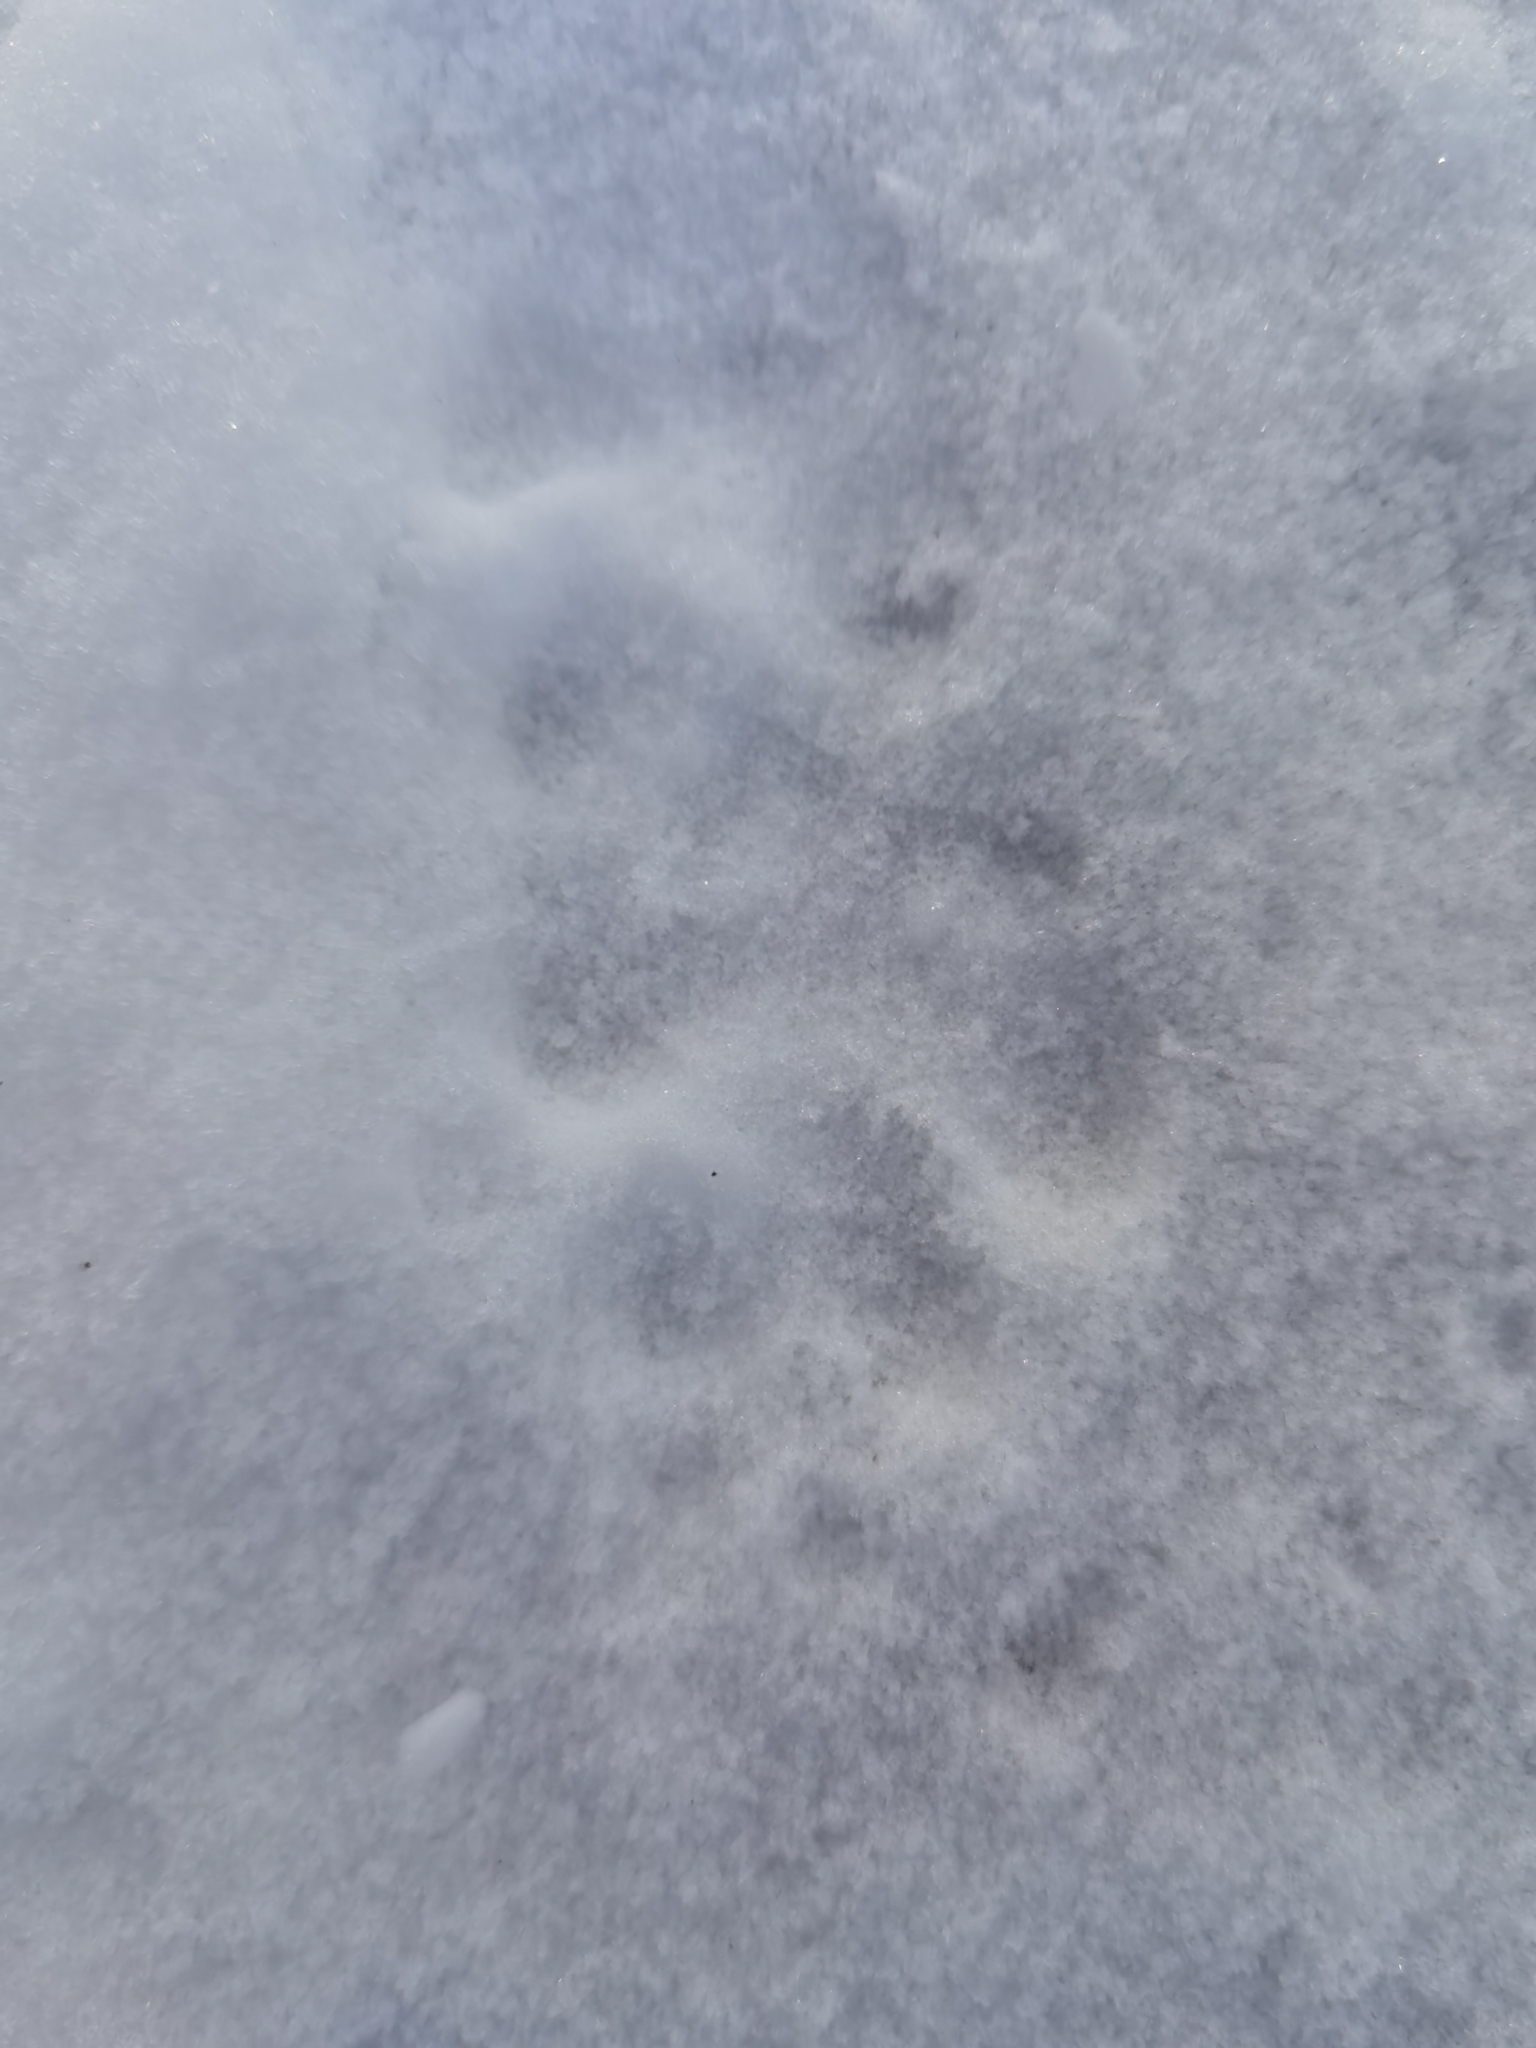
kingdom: Animalia
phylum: Chordata
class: Mammalia
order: Carnivora
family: Canidae
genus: Vulpes
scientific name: Vulpes vulpes
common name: Red fox
